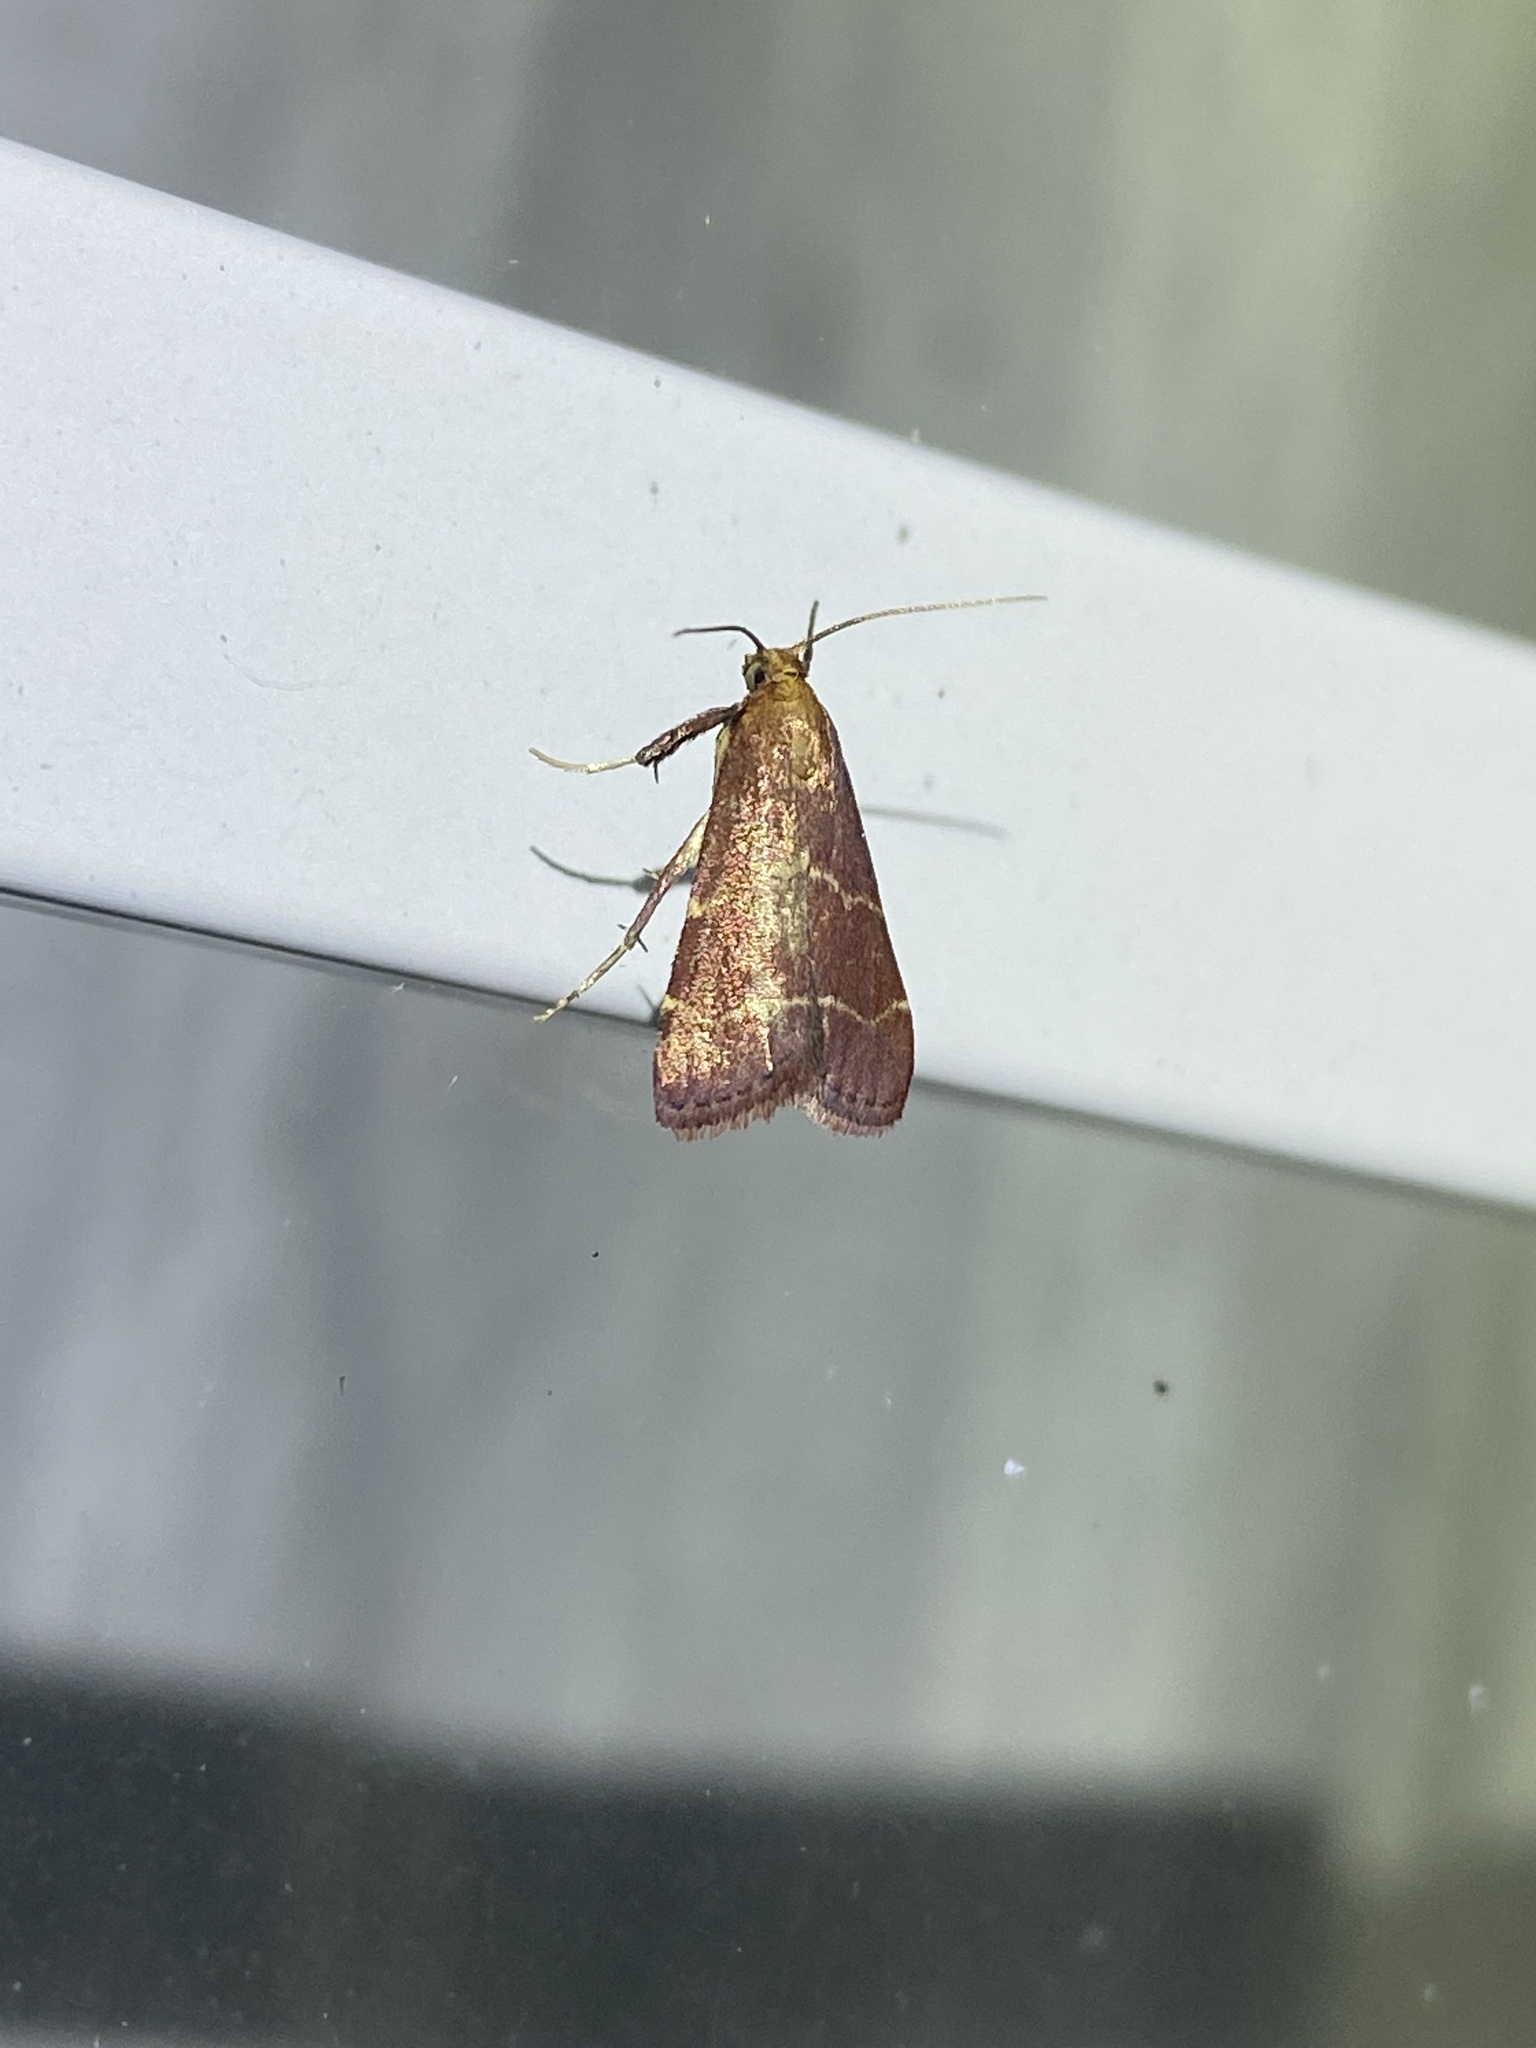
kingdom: Animalia
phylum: Arthropoda
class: Insecta
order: Lepidoptera
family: Pyralidae
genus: Arta
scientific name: Arta statalis
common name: Posturing arta moth
